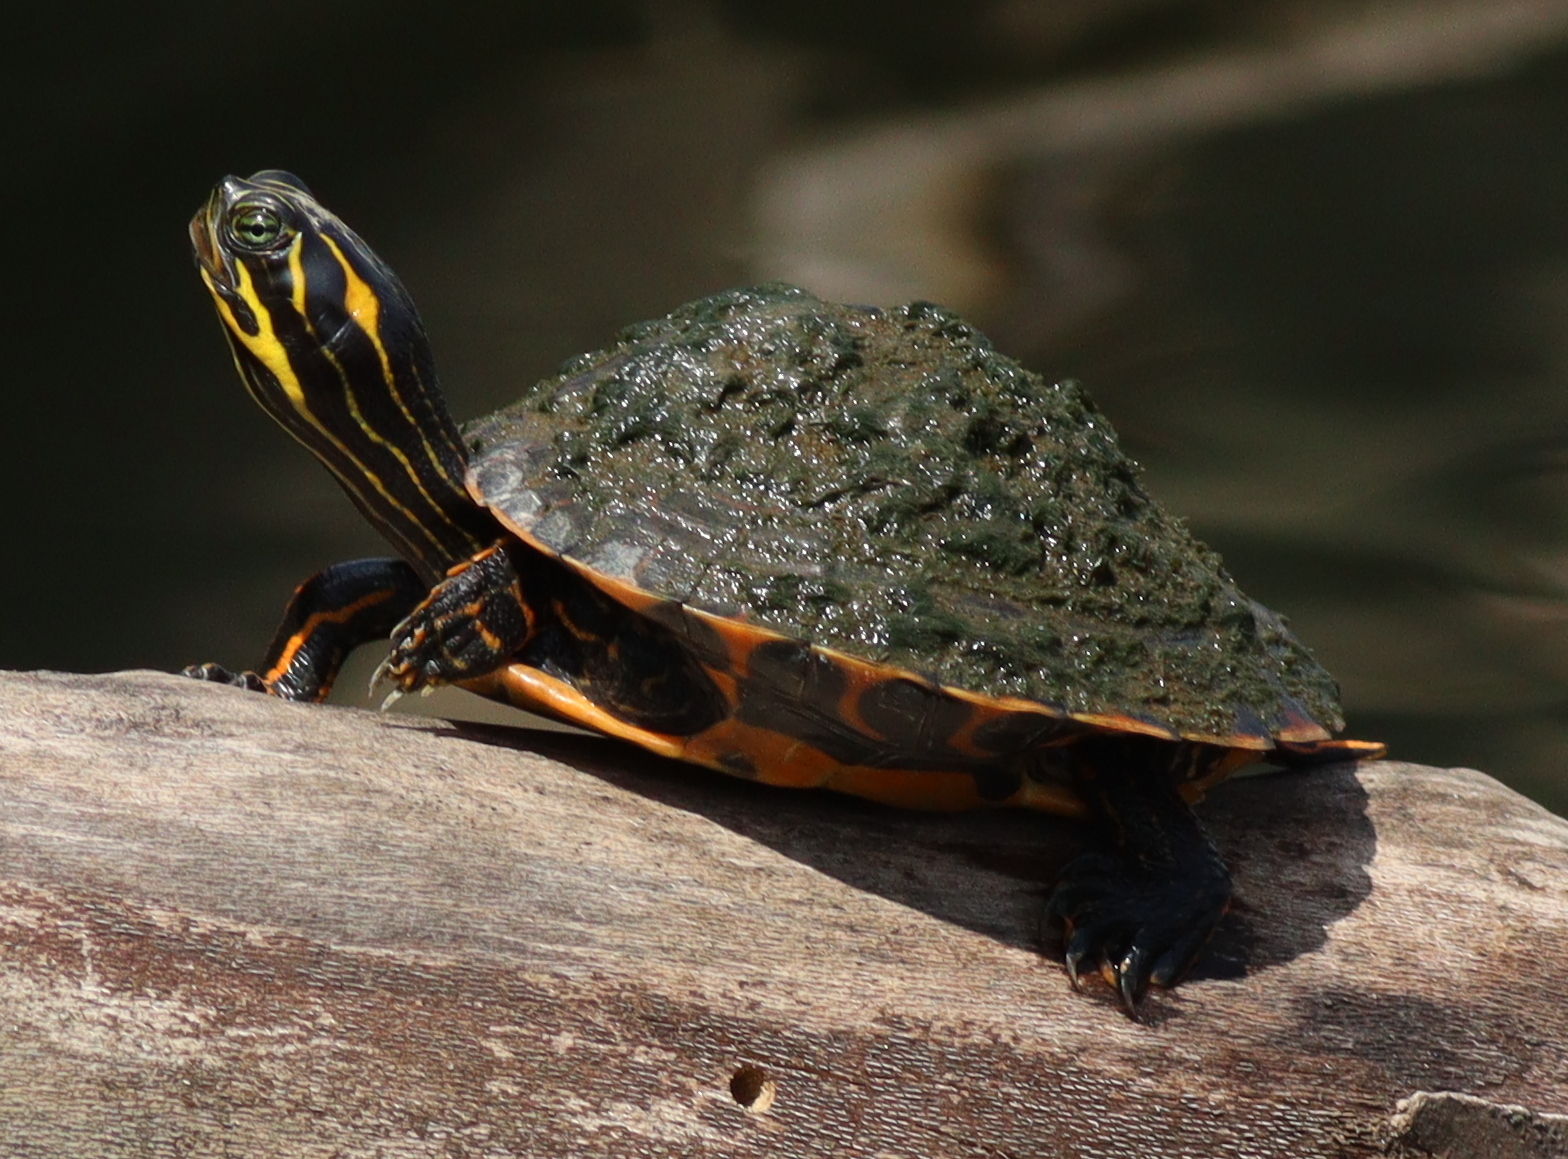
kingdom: Animalia
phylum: Chordata
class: Testudines
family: Emydidae
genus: Pseudemys
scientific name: Pseudemys concinna
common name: Eastern river cooter
